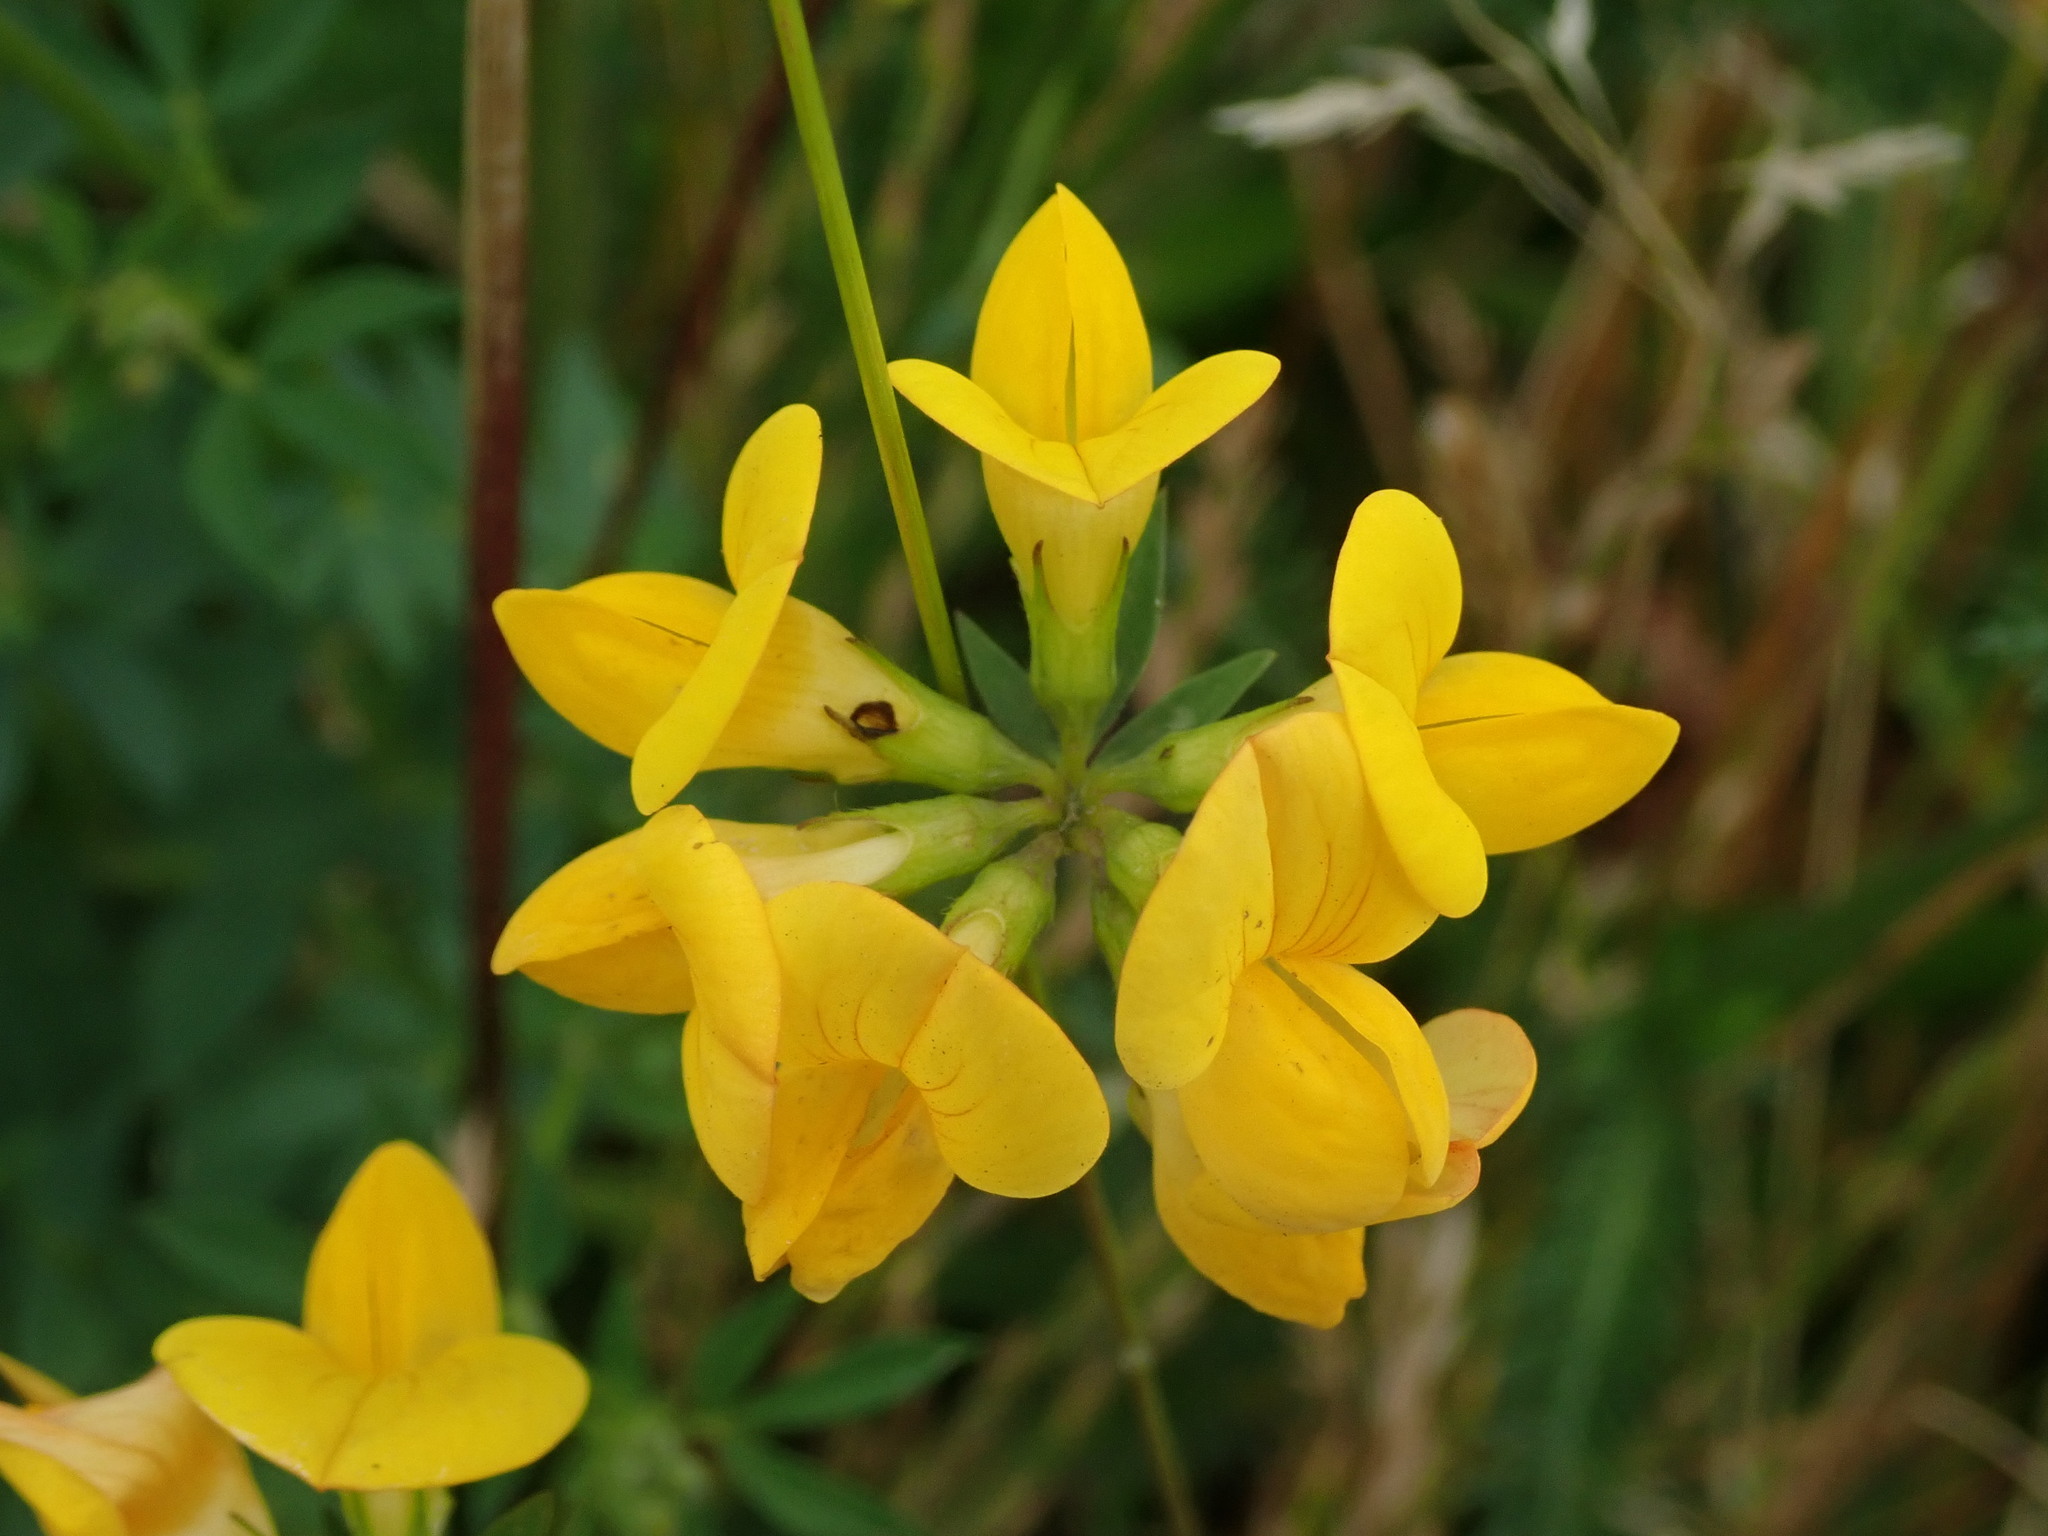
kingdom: Plantae
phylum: Tracheophyta
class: Magnoliopsida
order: Fabales
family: Fabaceae
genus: Lotus
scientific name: Lotus corniculatus
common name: Common bird's-foot-trefoil
